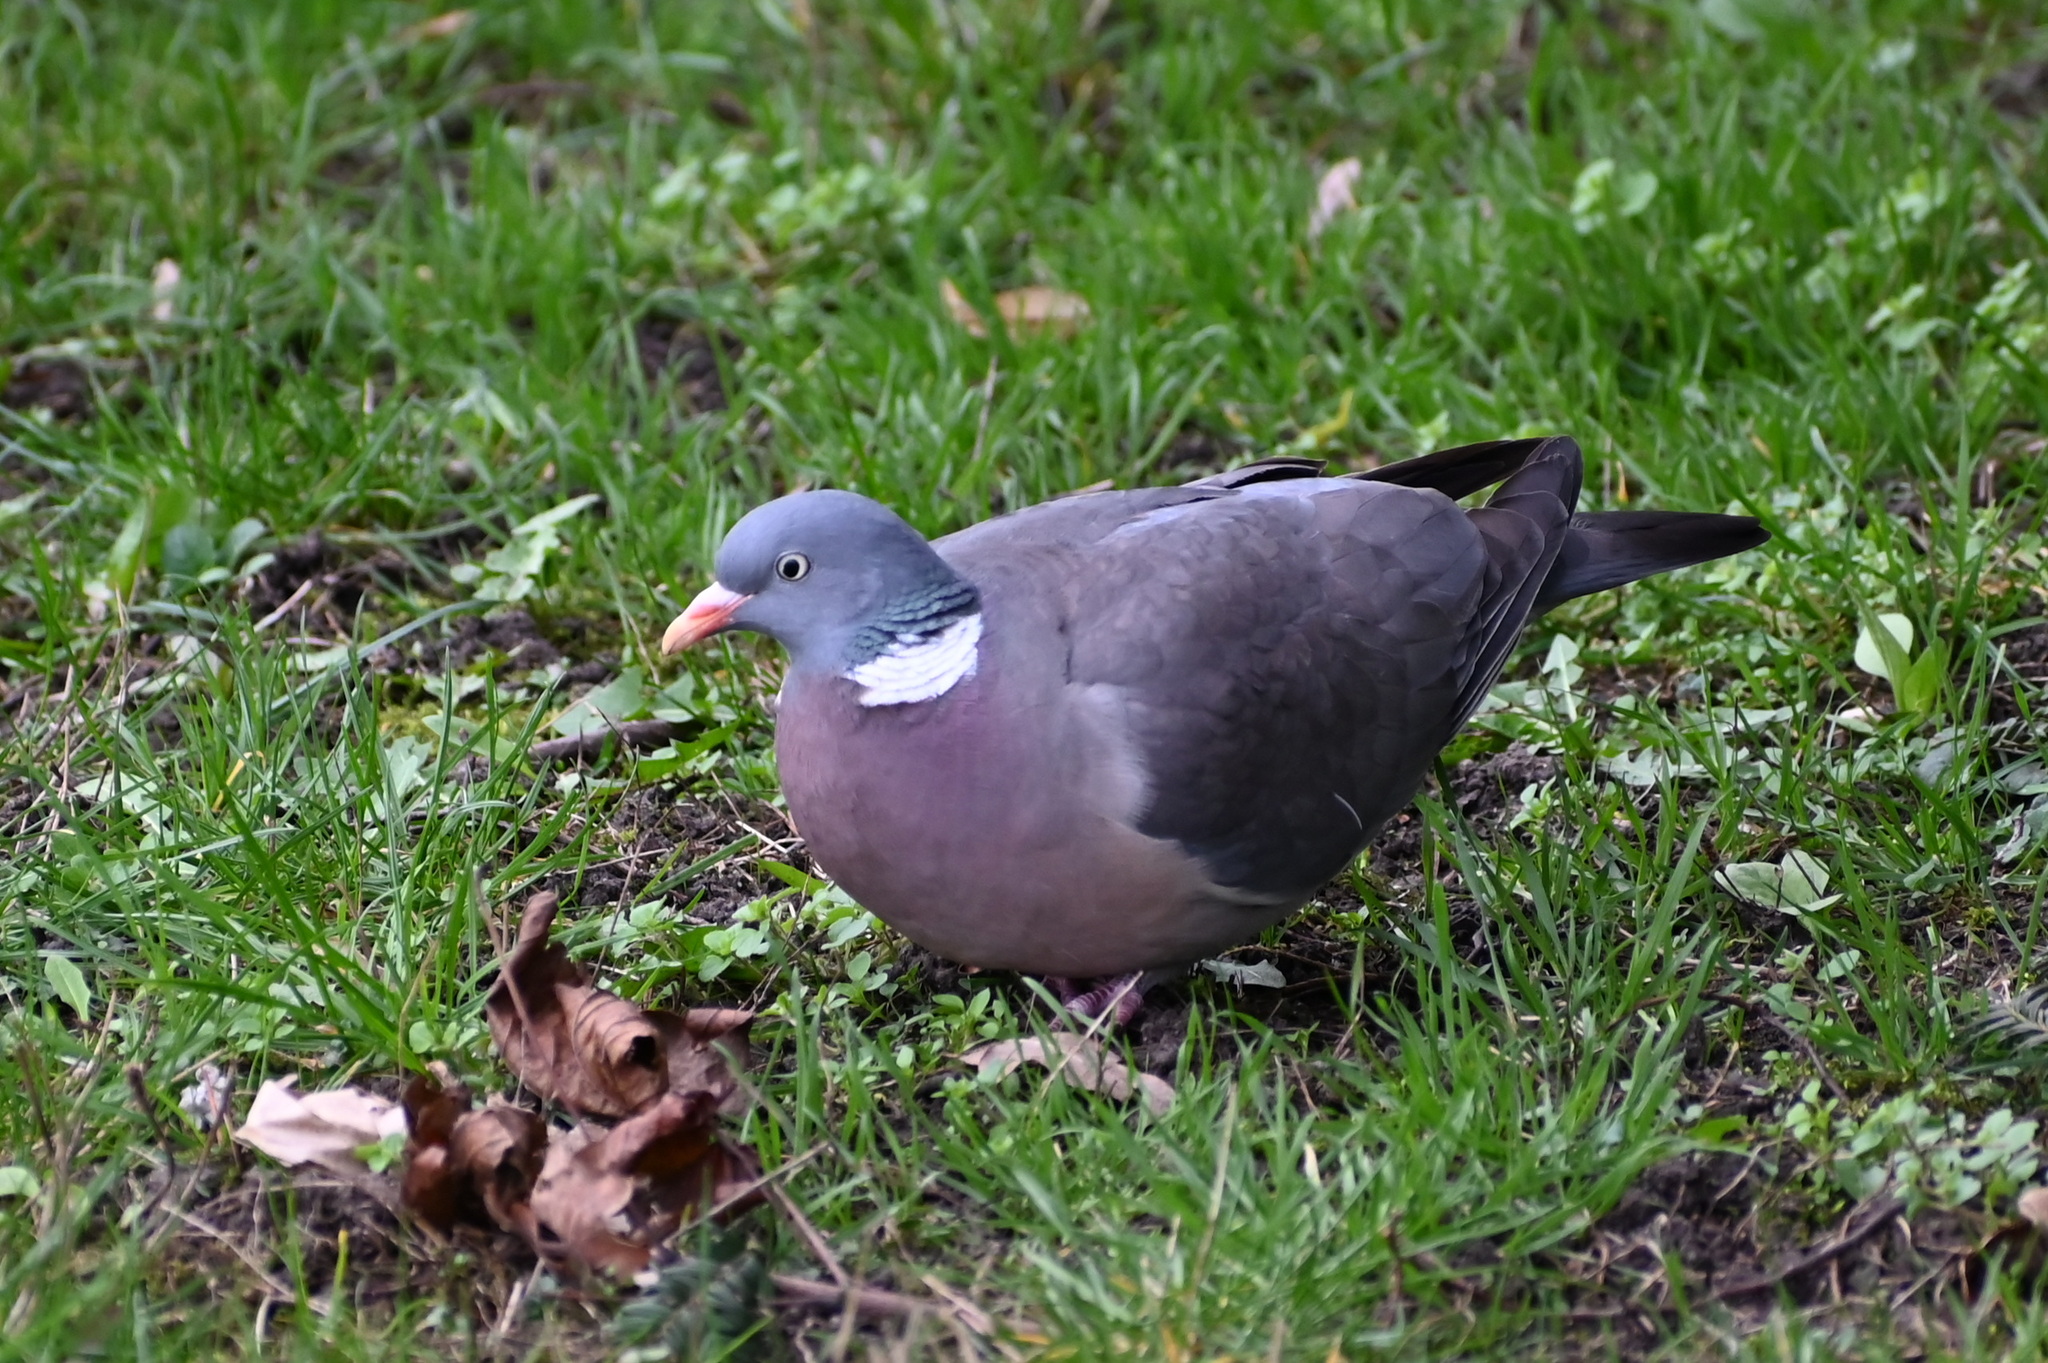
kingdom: Animalia
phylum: Chordata
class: Aves
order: Columbiformes
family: Columbidae
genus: Columba
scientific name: Columba palumbus
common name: Common wood pigeon
